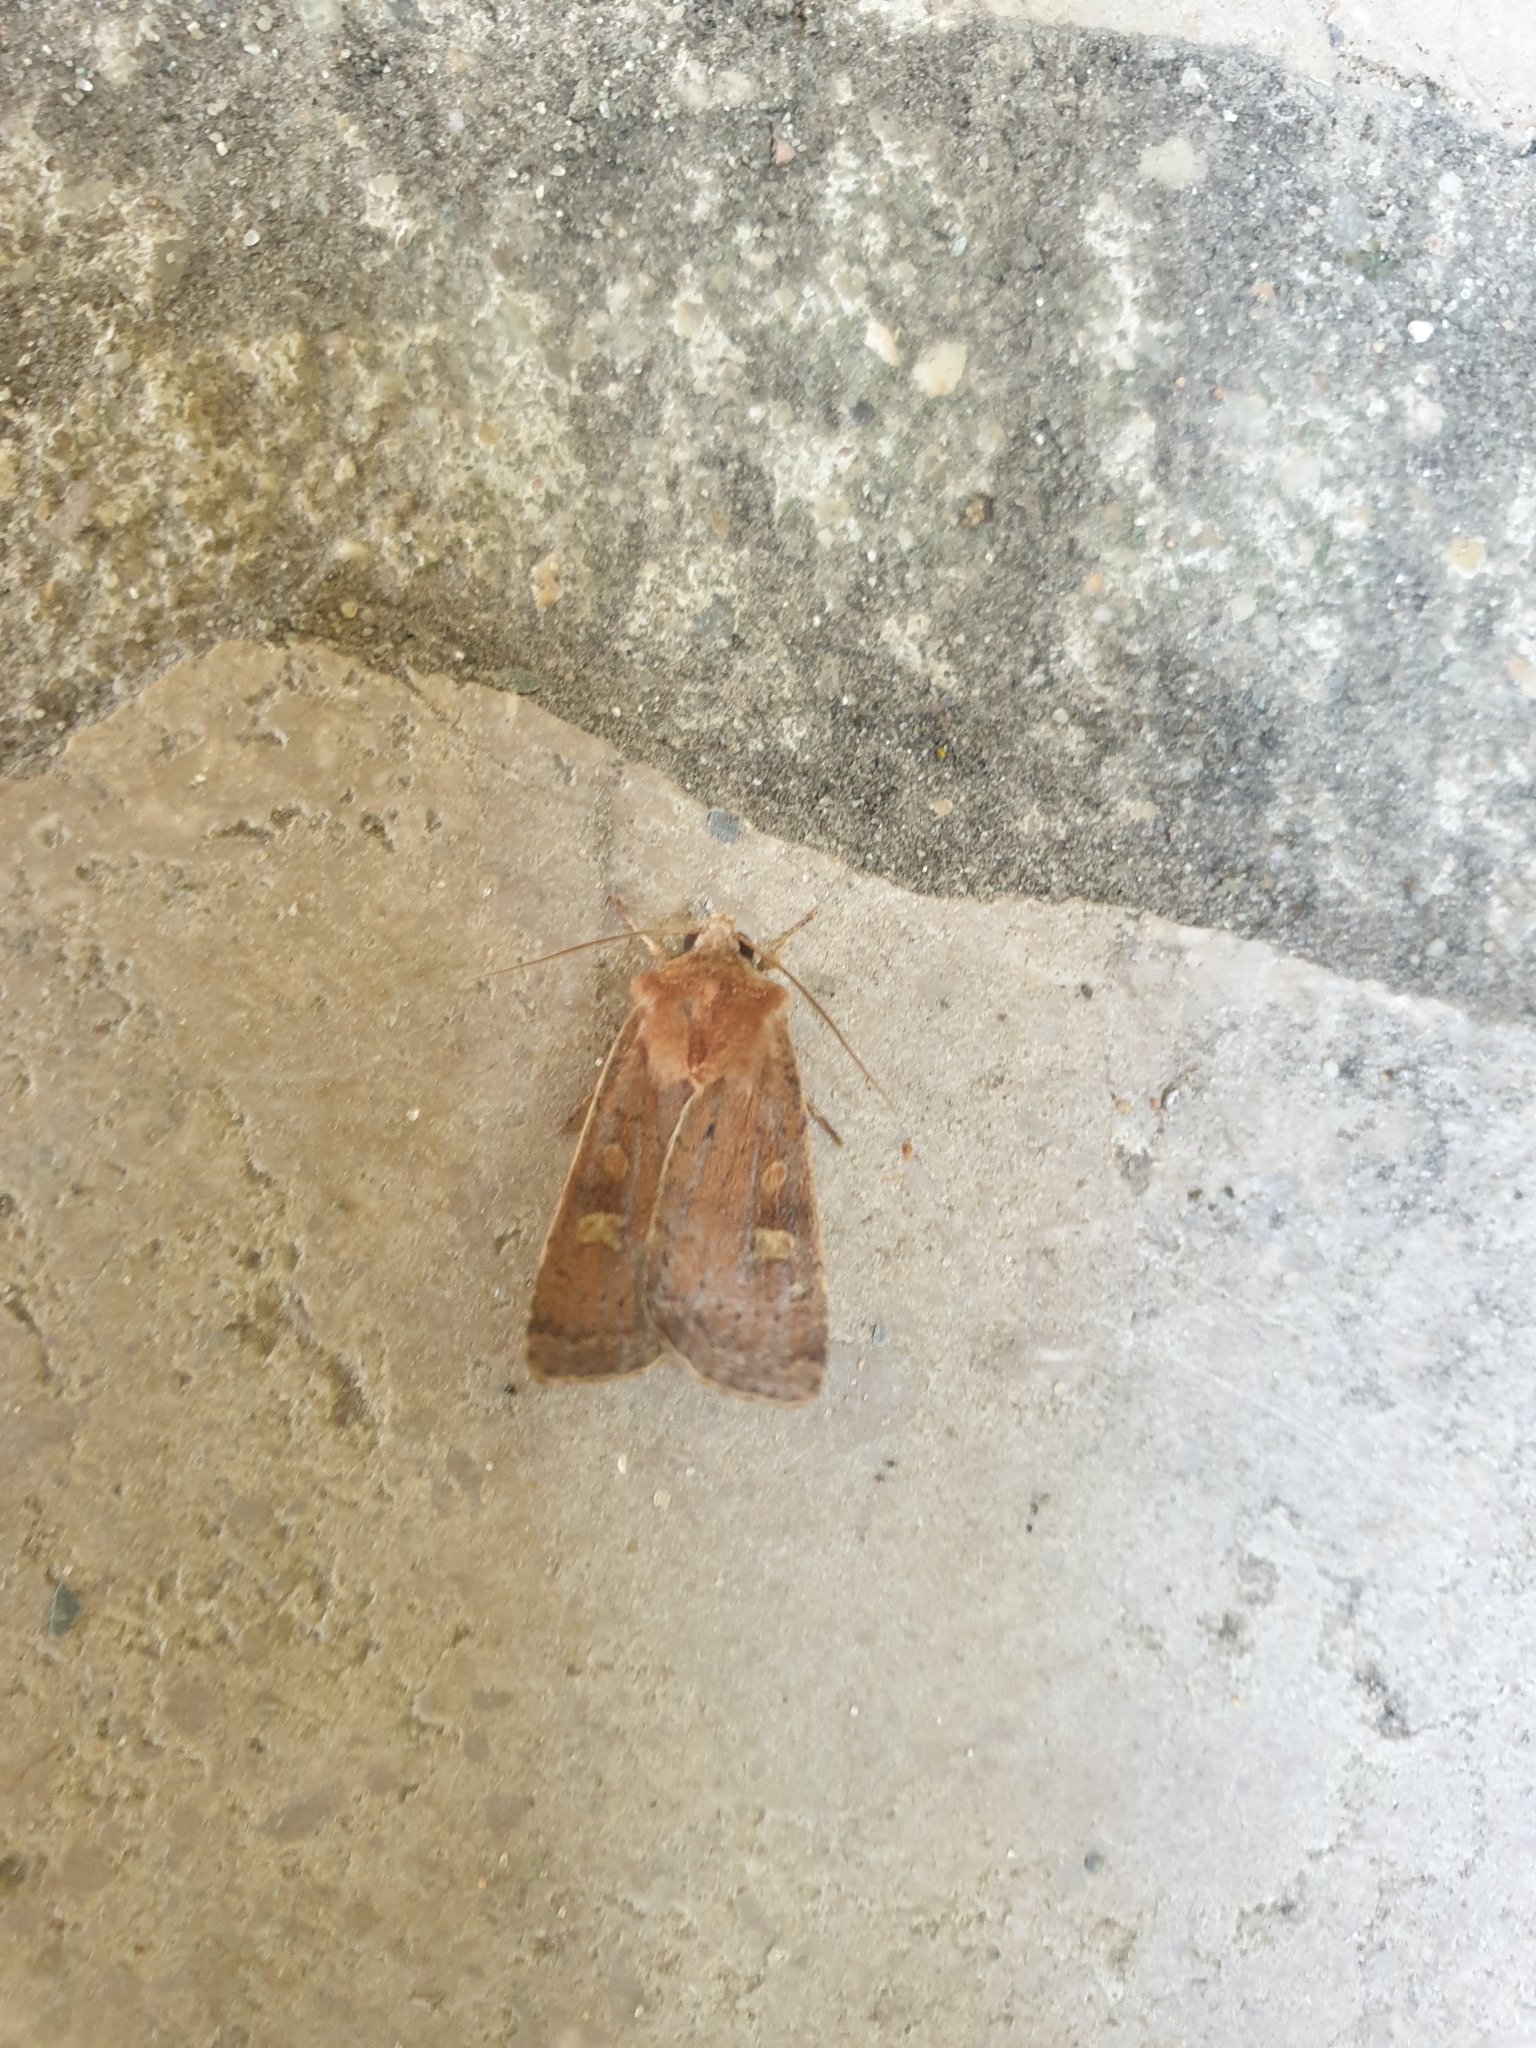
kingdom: Animalia
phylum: Arthropoda
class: Insecta
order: Lepidoptera
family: Noctuidae
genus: Xestia
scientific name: Xestia xanthographa
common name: Square-spot rustic
